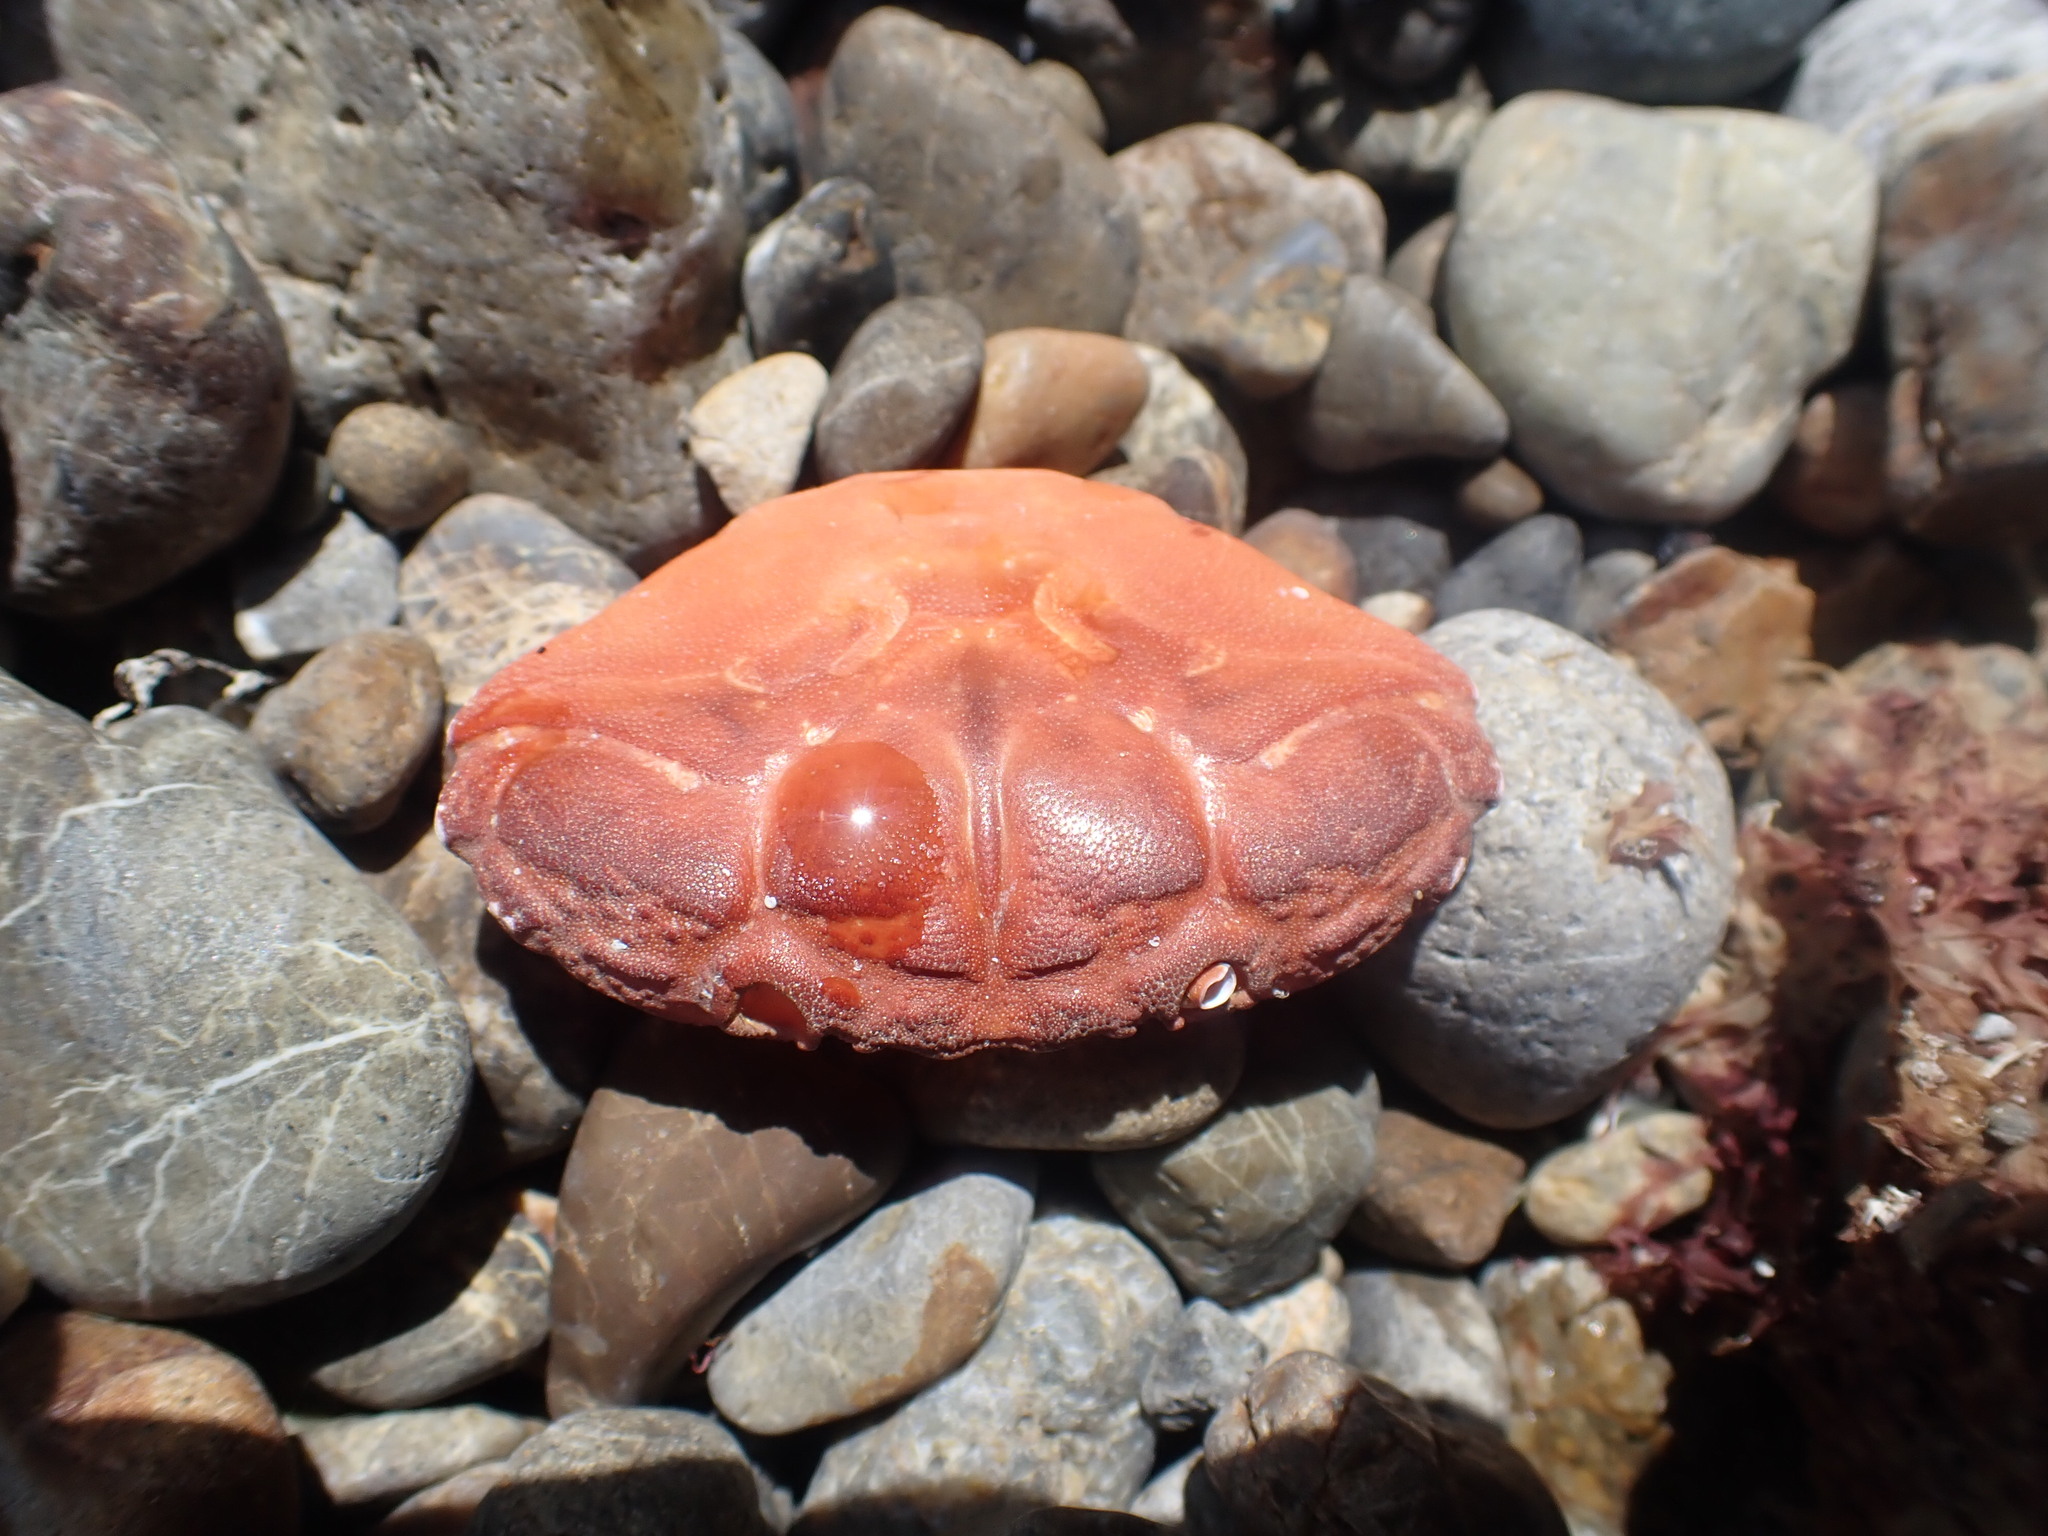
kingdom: Animalia
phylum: Arthropoda
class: Malacostraca
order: Decapoda
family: Oziidae
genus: Ozius
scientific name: Ozius deplanatus
